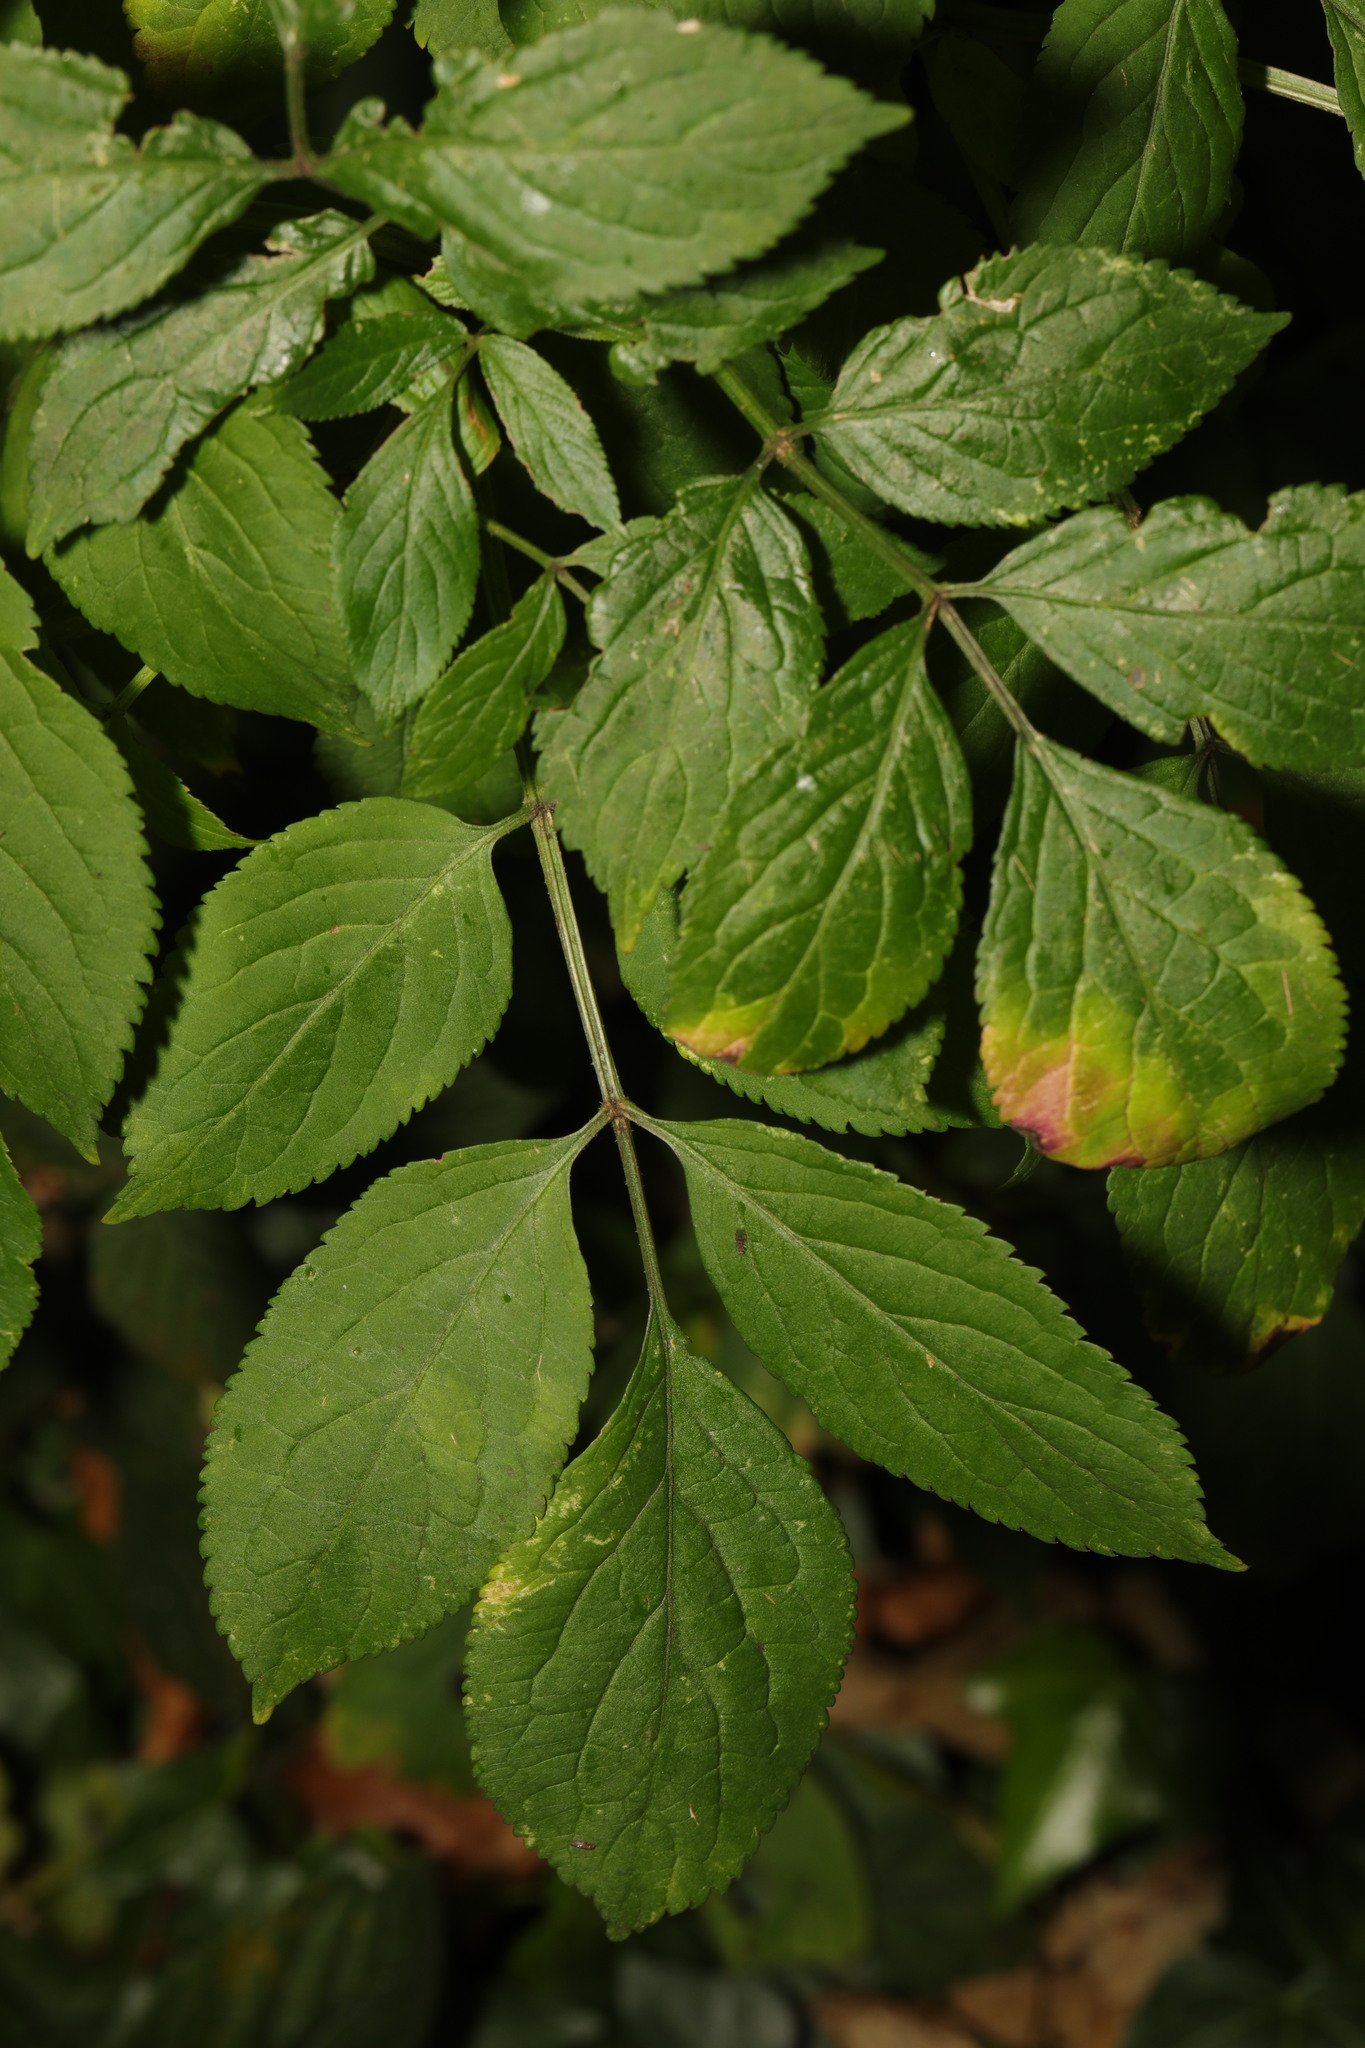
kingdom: Plantae
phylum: Tracheophyta
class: Magnoliopsida
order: Dipsacales
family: Viburnaceae
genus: Sambucus
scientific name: Sambucus nigra
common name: Elder
